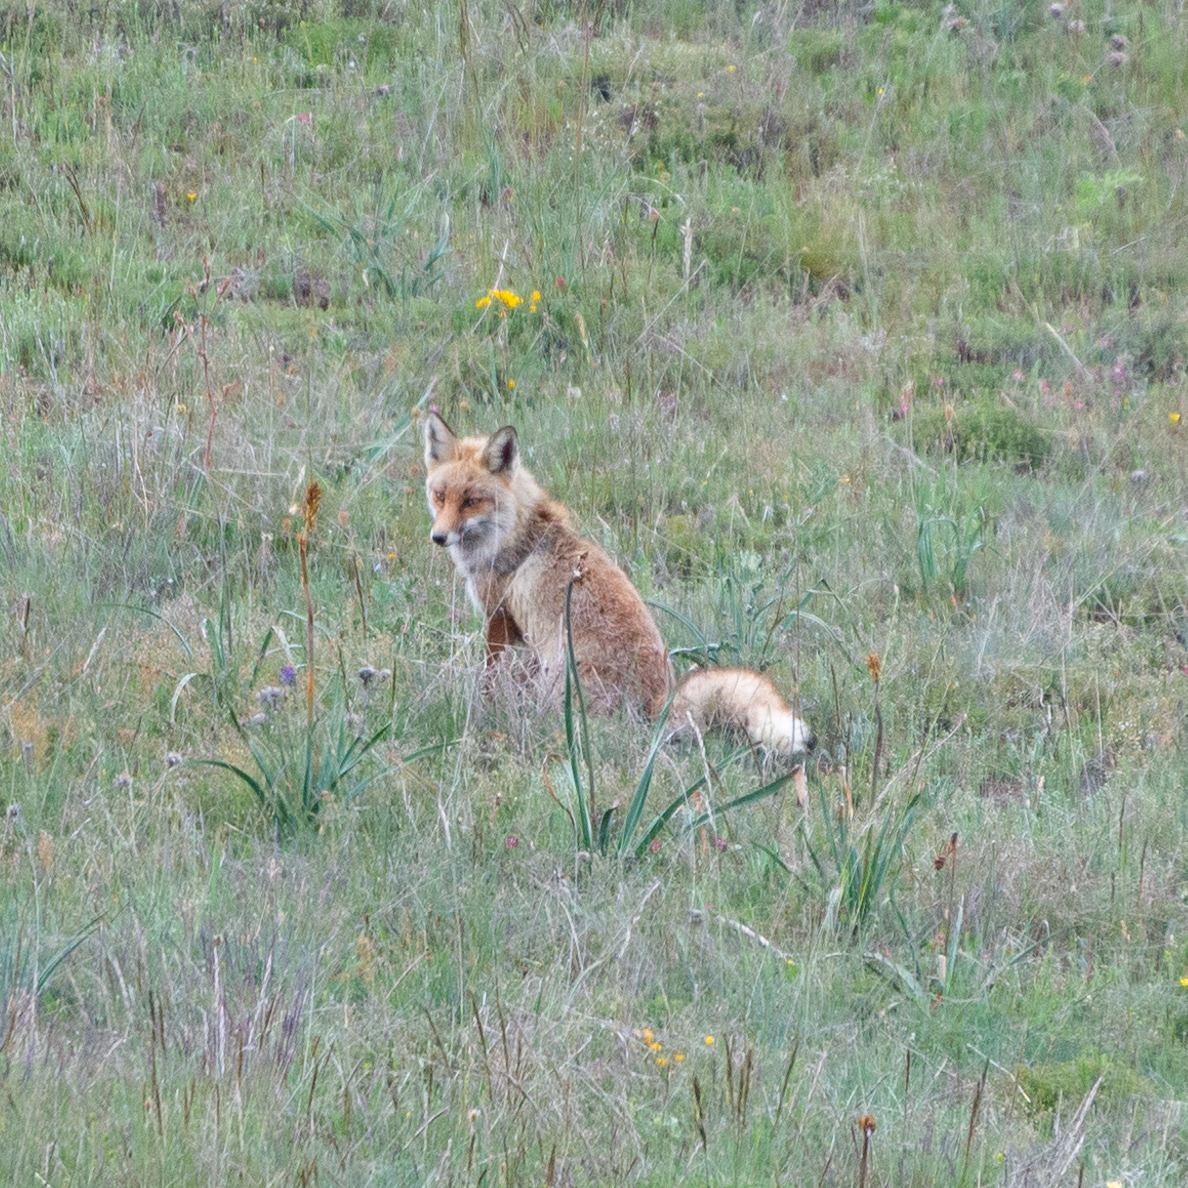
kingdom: Animalia
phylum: Chordata
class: Mammalia
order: Carnivora
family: Canidae
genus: Vulpes
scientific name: Vulpes vulpes
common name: Red fox
